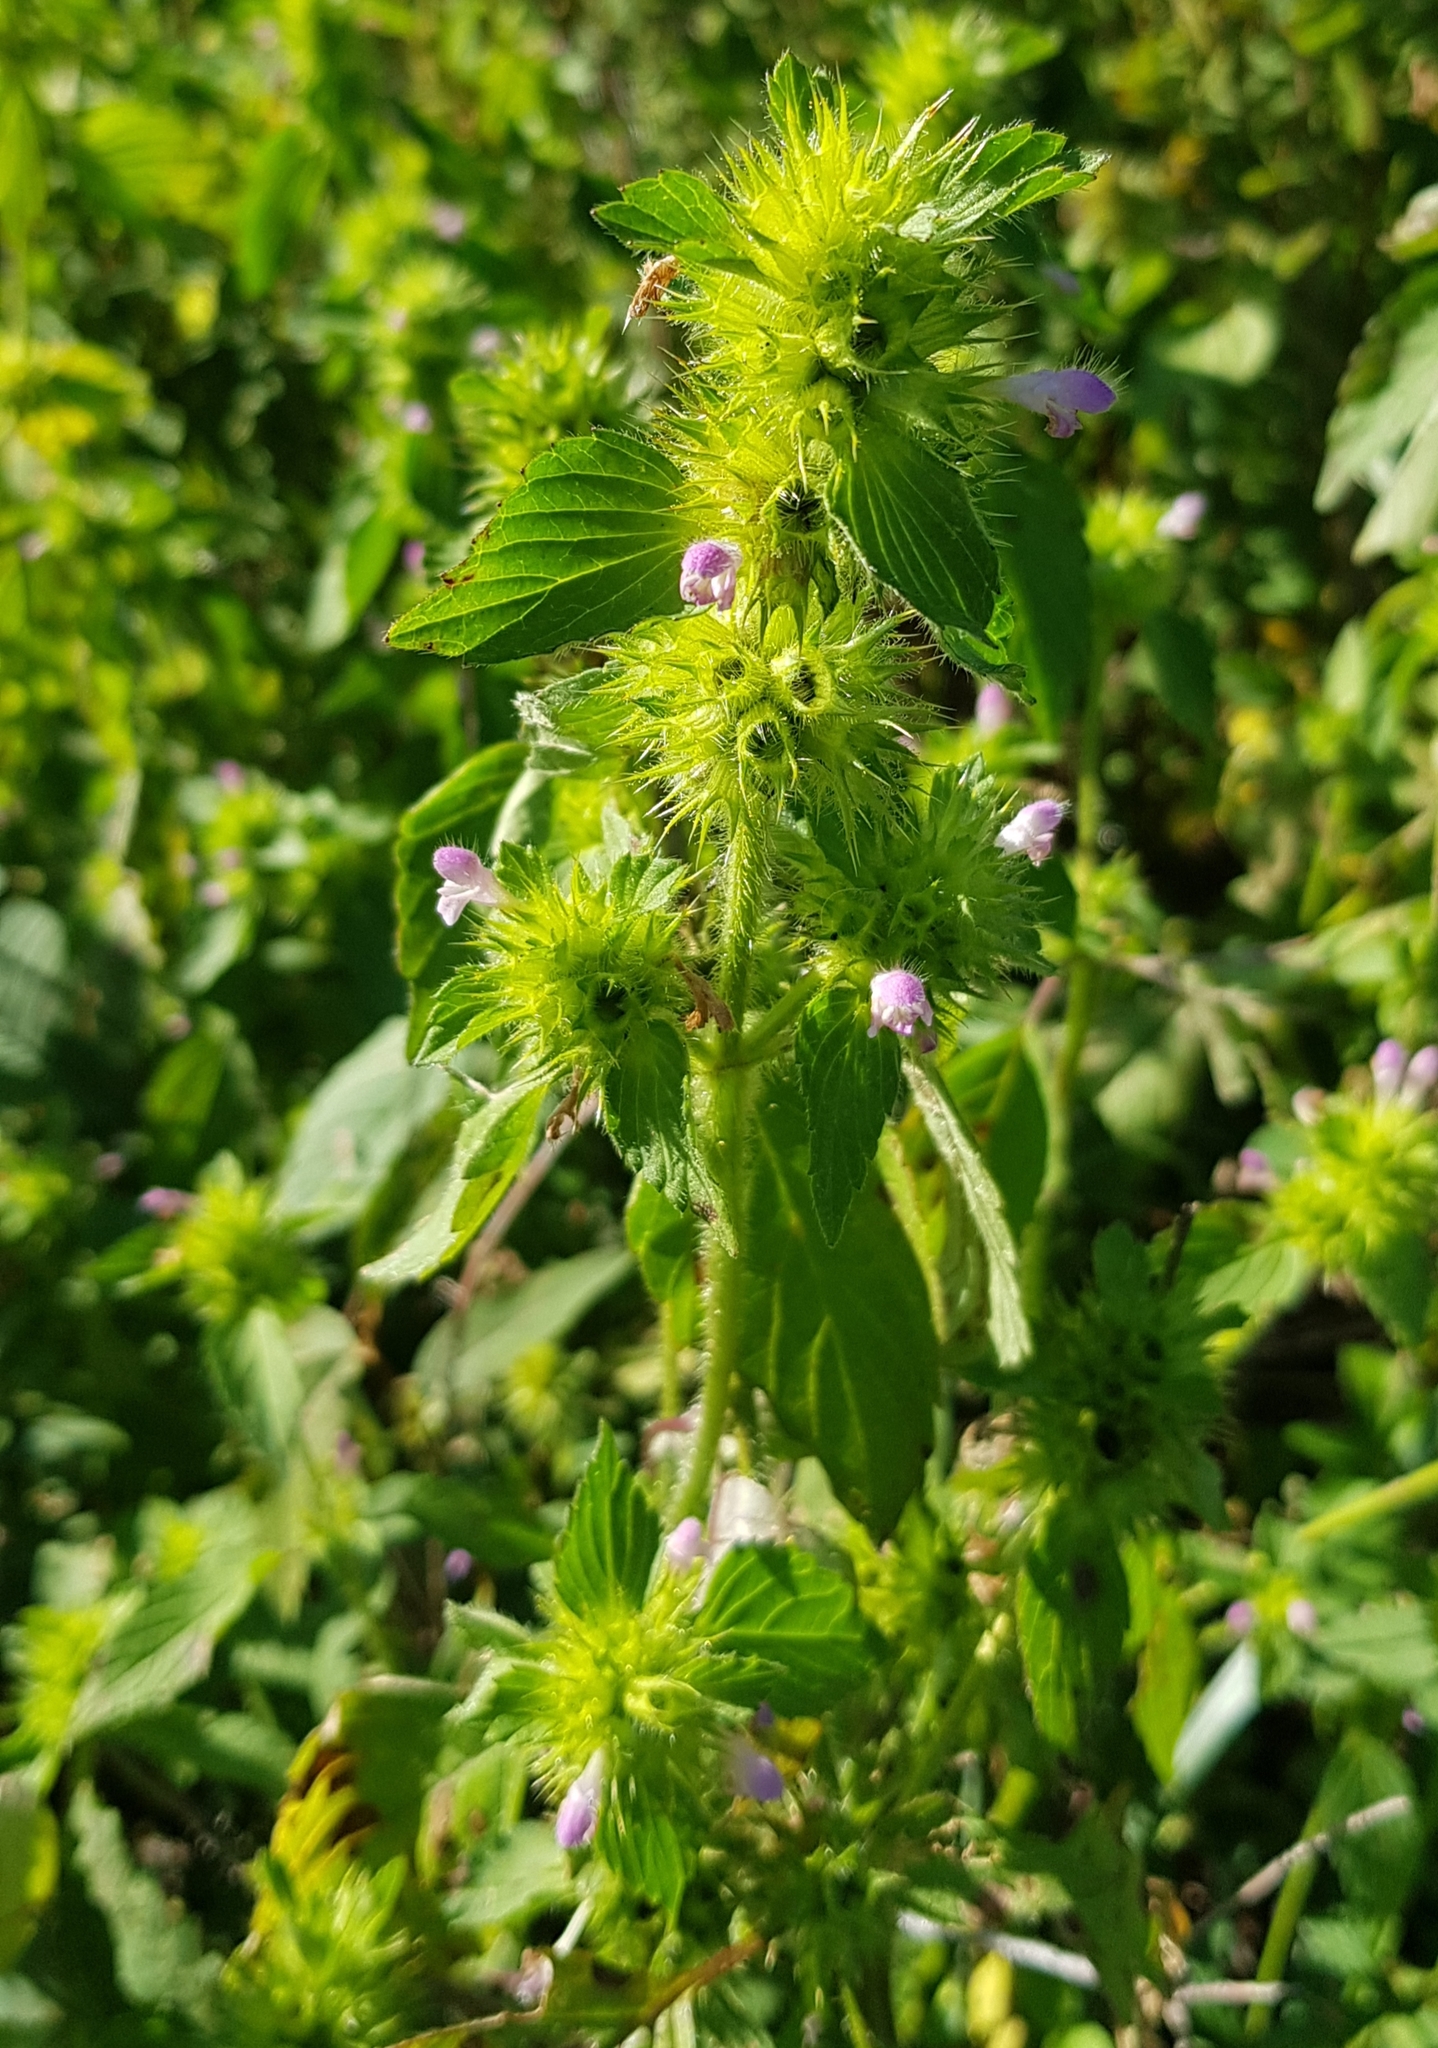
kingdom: Plantae
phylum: Tracheophyta
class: Magnoliopsida
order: Lamiales
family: Lamiaceae
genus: Galeopsis
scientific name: Galeopsis bifida
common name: Bifid hemp-nettle
